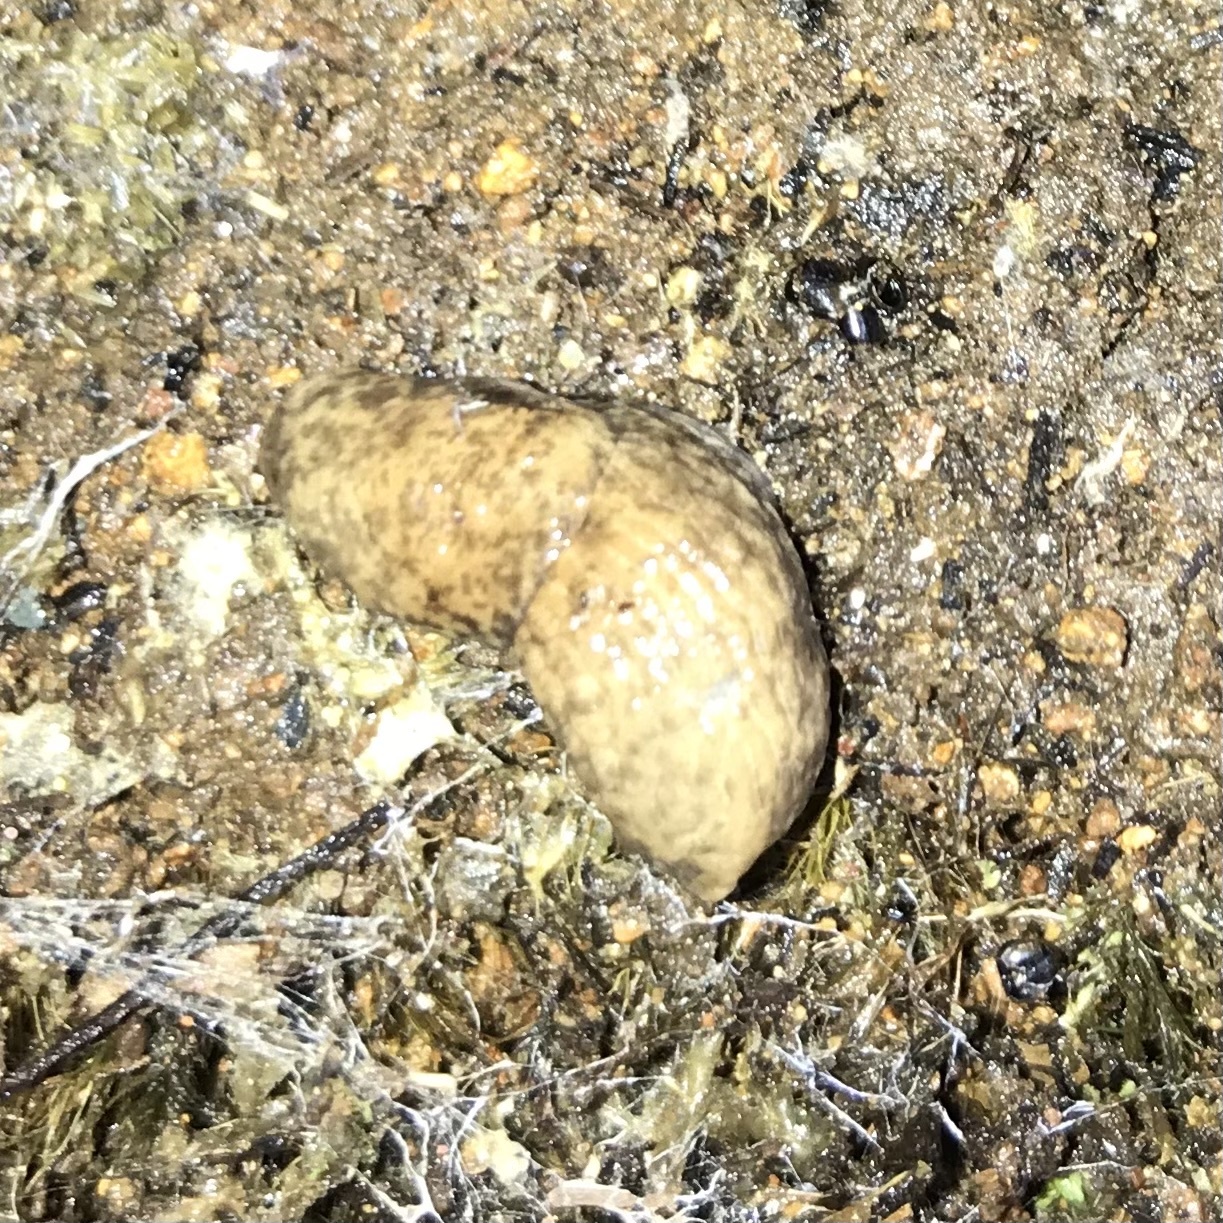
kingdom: Animalia
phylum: Mollusca
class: Gastropoda
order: Stylommatophora
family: Agriolimacidae
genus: Deroceras
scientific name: Deroceras reticulatum
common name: Gray field slug
